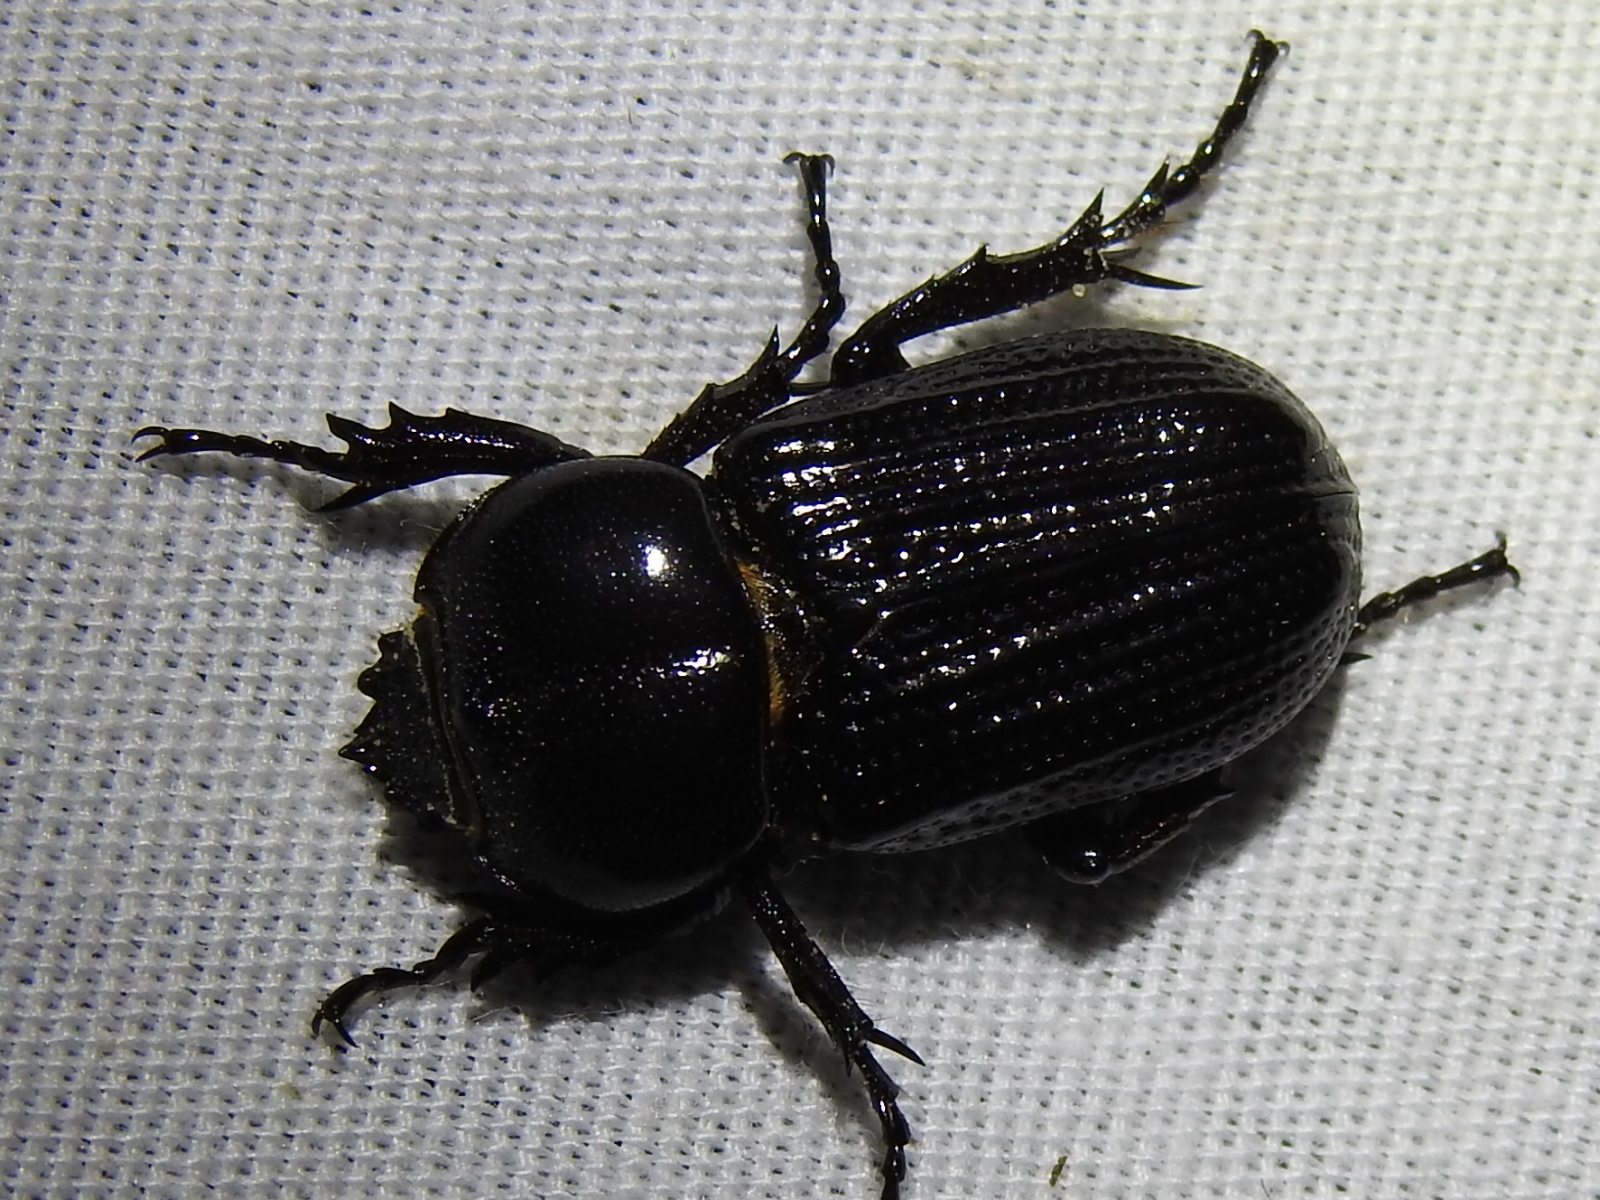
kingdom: Animalia
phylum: Arthropoda
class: Insecta
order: Coleoptera
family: Scarabaeidae
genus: Phileurus
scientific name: Phileurus valgus
